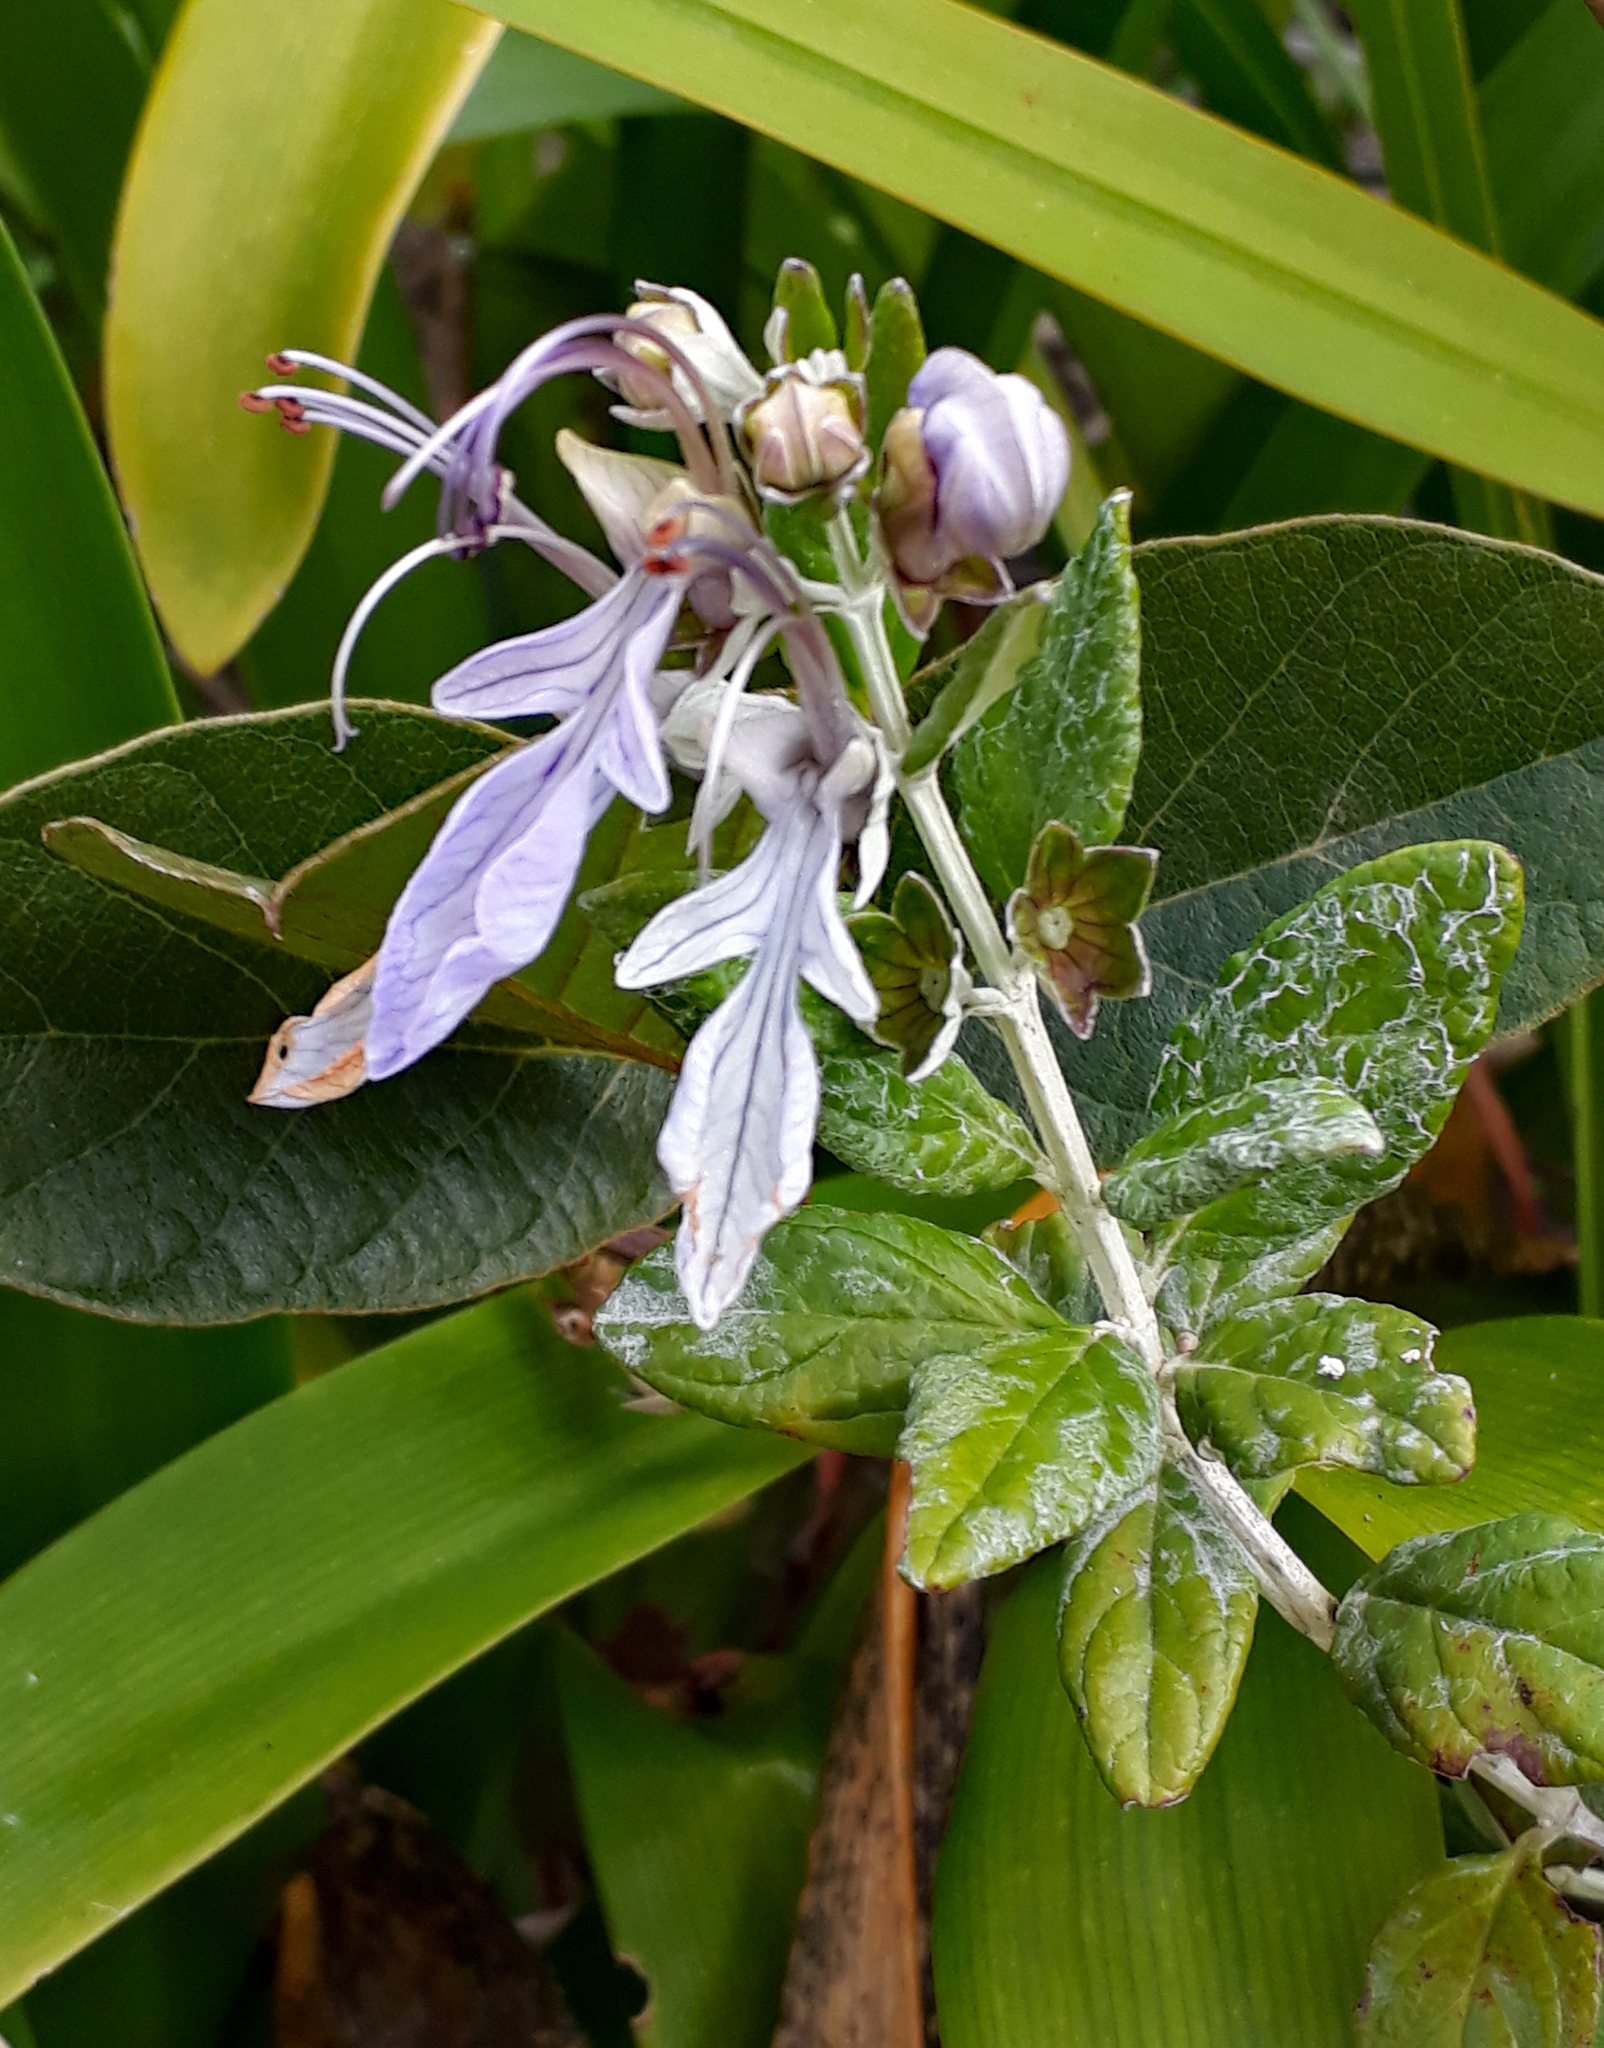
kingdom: Plantae
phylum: Tracheophyta
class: Magnoliopsida
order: Lamiales
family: Lamiaceae
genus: Teucrium
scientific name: Teucrium fruticans
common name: Shrubby germander
